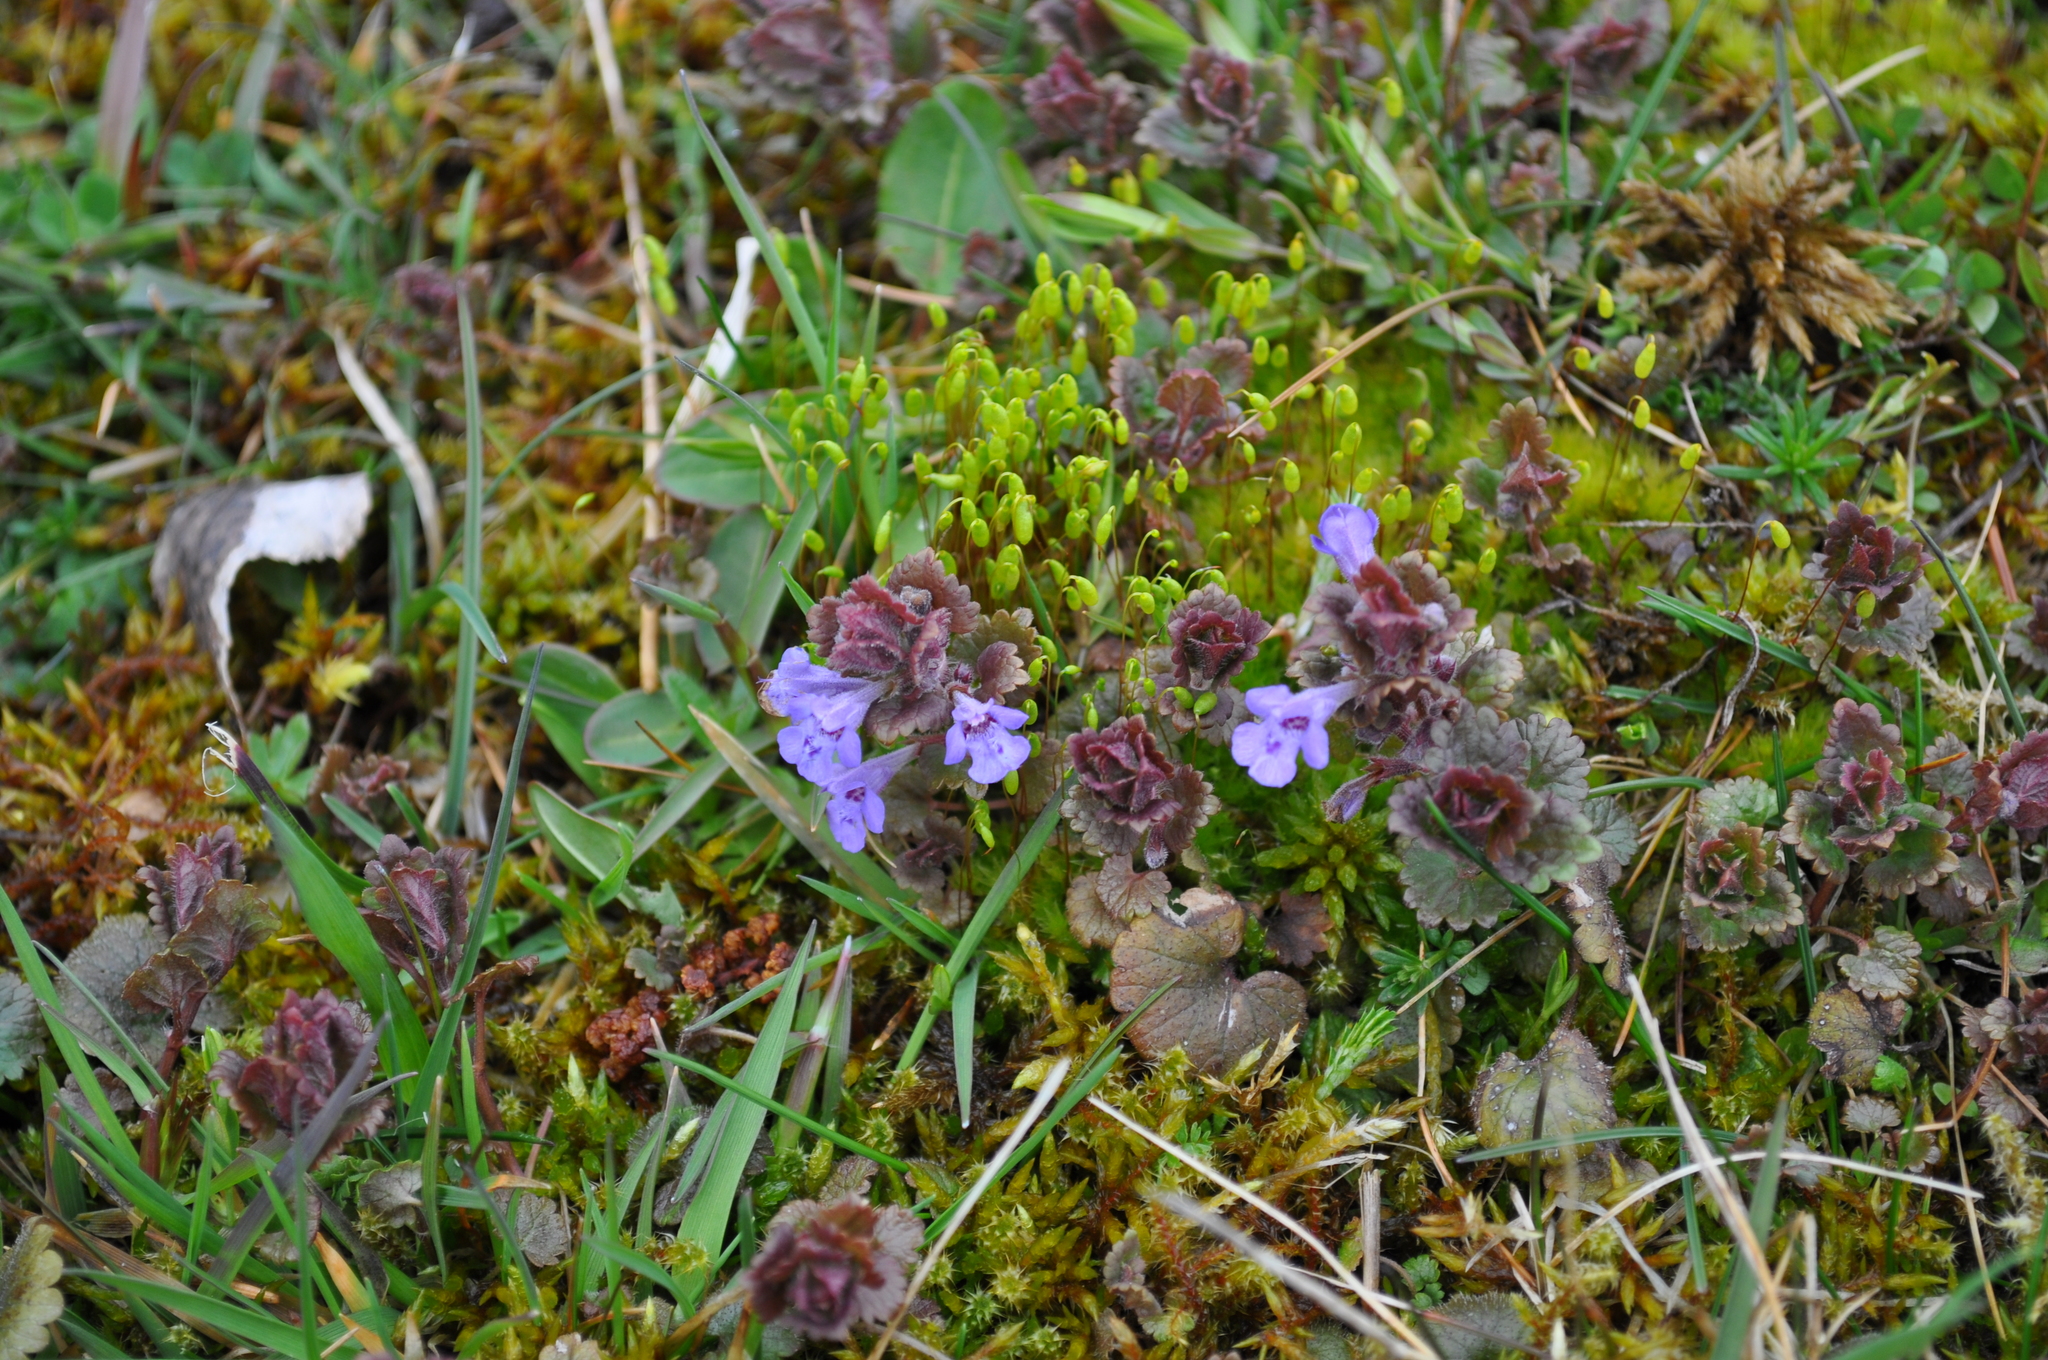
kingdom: Plantae
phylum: Tracheophyta
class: Magnoliopsida
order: Lamiales
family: Lamiaceae
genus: Glechoma
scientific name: Glechoma hederacea
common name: Ground ivy
